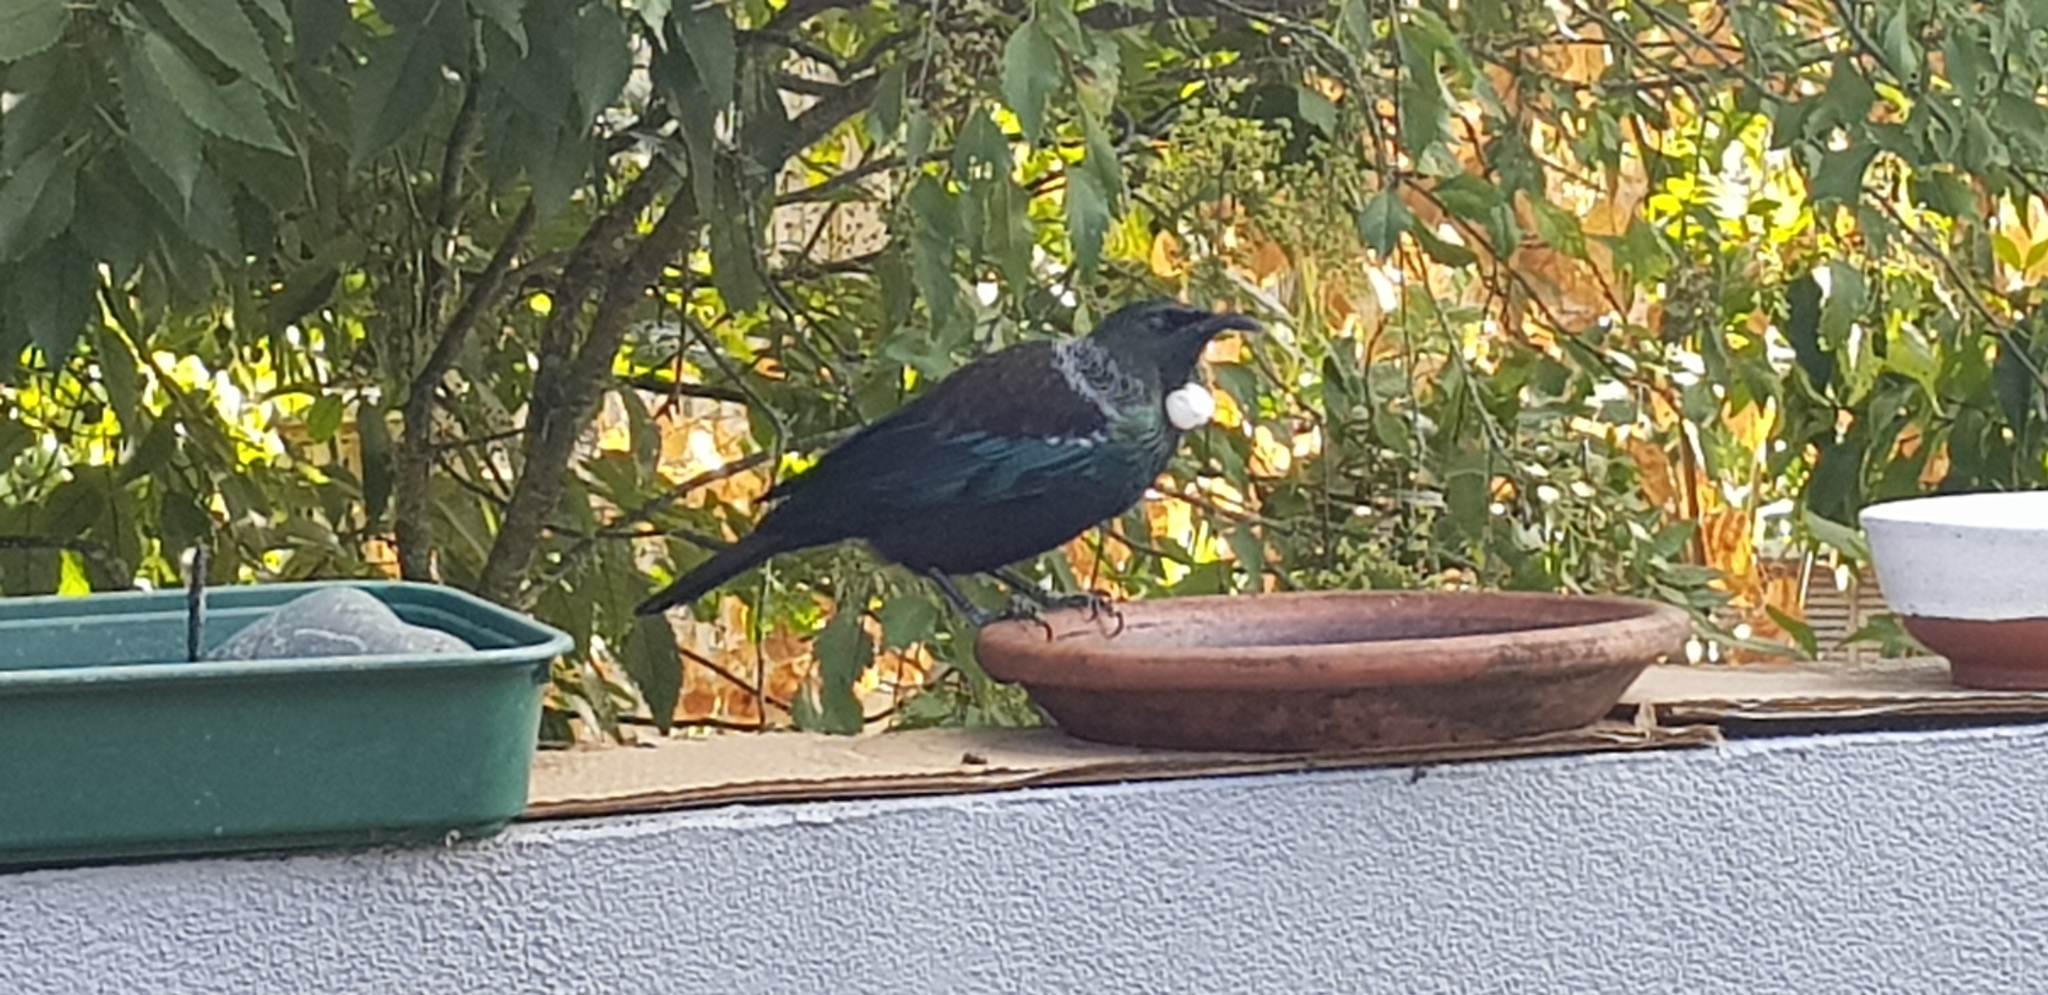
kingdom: Animalia
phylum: Chordata
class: Aves
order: Passeriformes
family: Meliphagidae
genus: Prosthemadera
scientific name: Prosthemadera novaeseelandiae
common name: Tui
